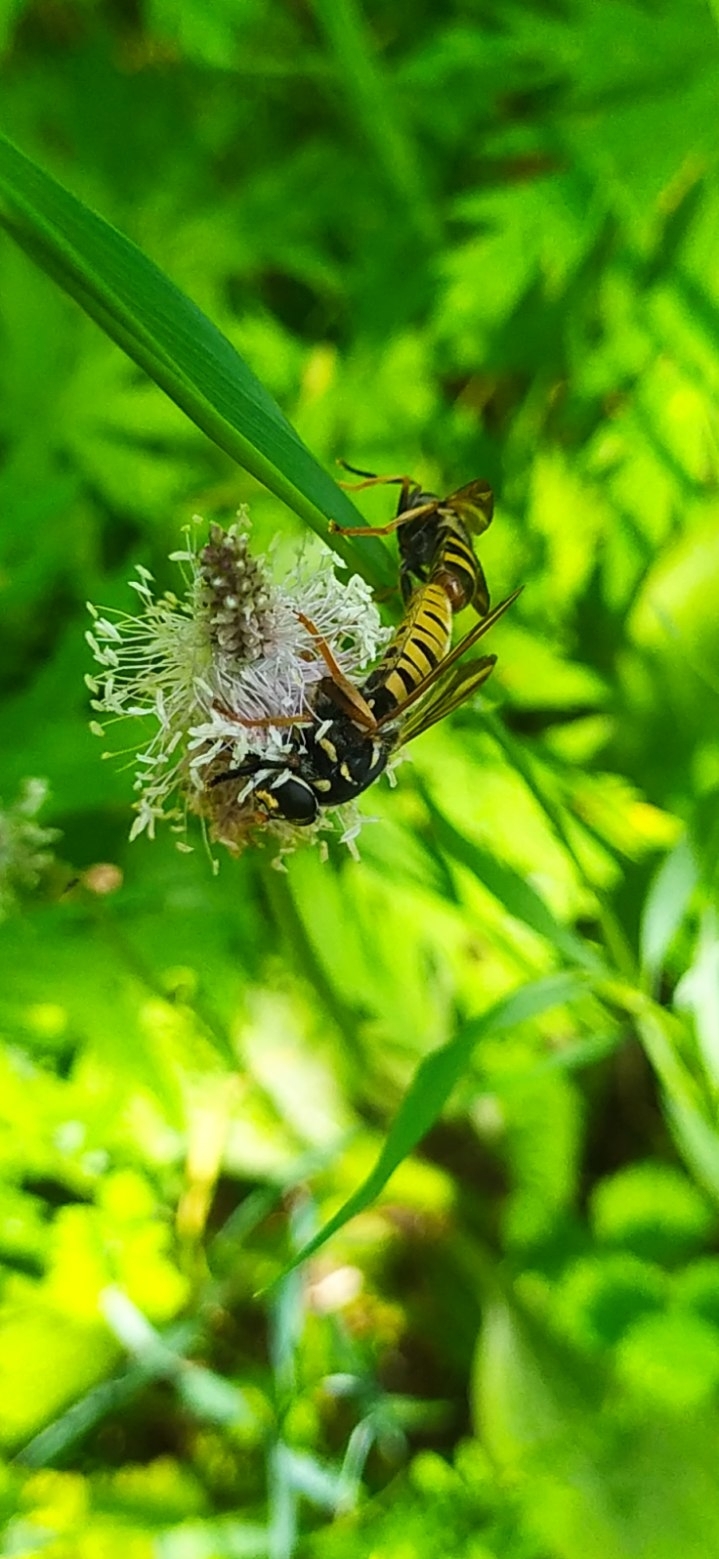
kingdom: Animalia
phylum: Arthropoda
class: Insecta
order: Diptera
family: Syrphidae
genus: Temnostoma
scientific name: Temnostoma vespiforme
